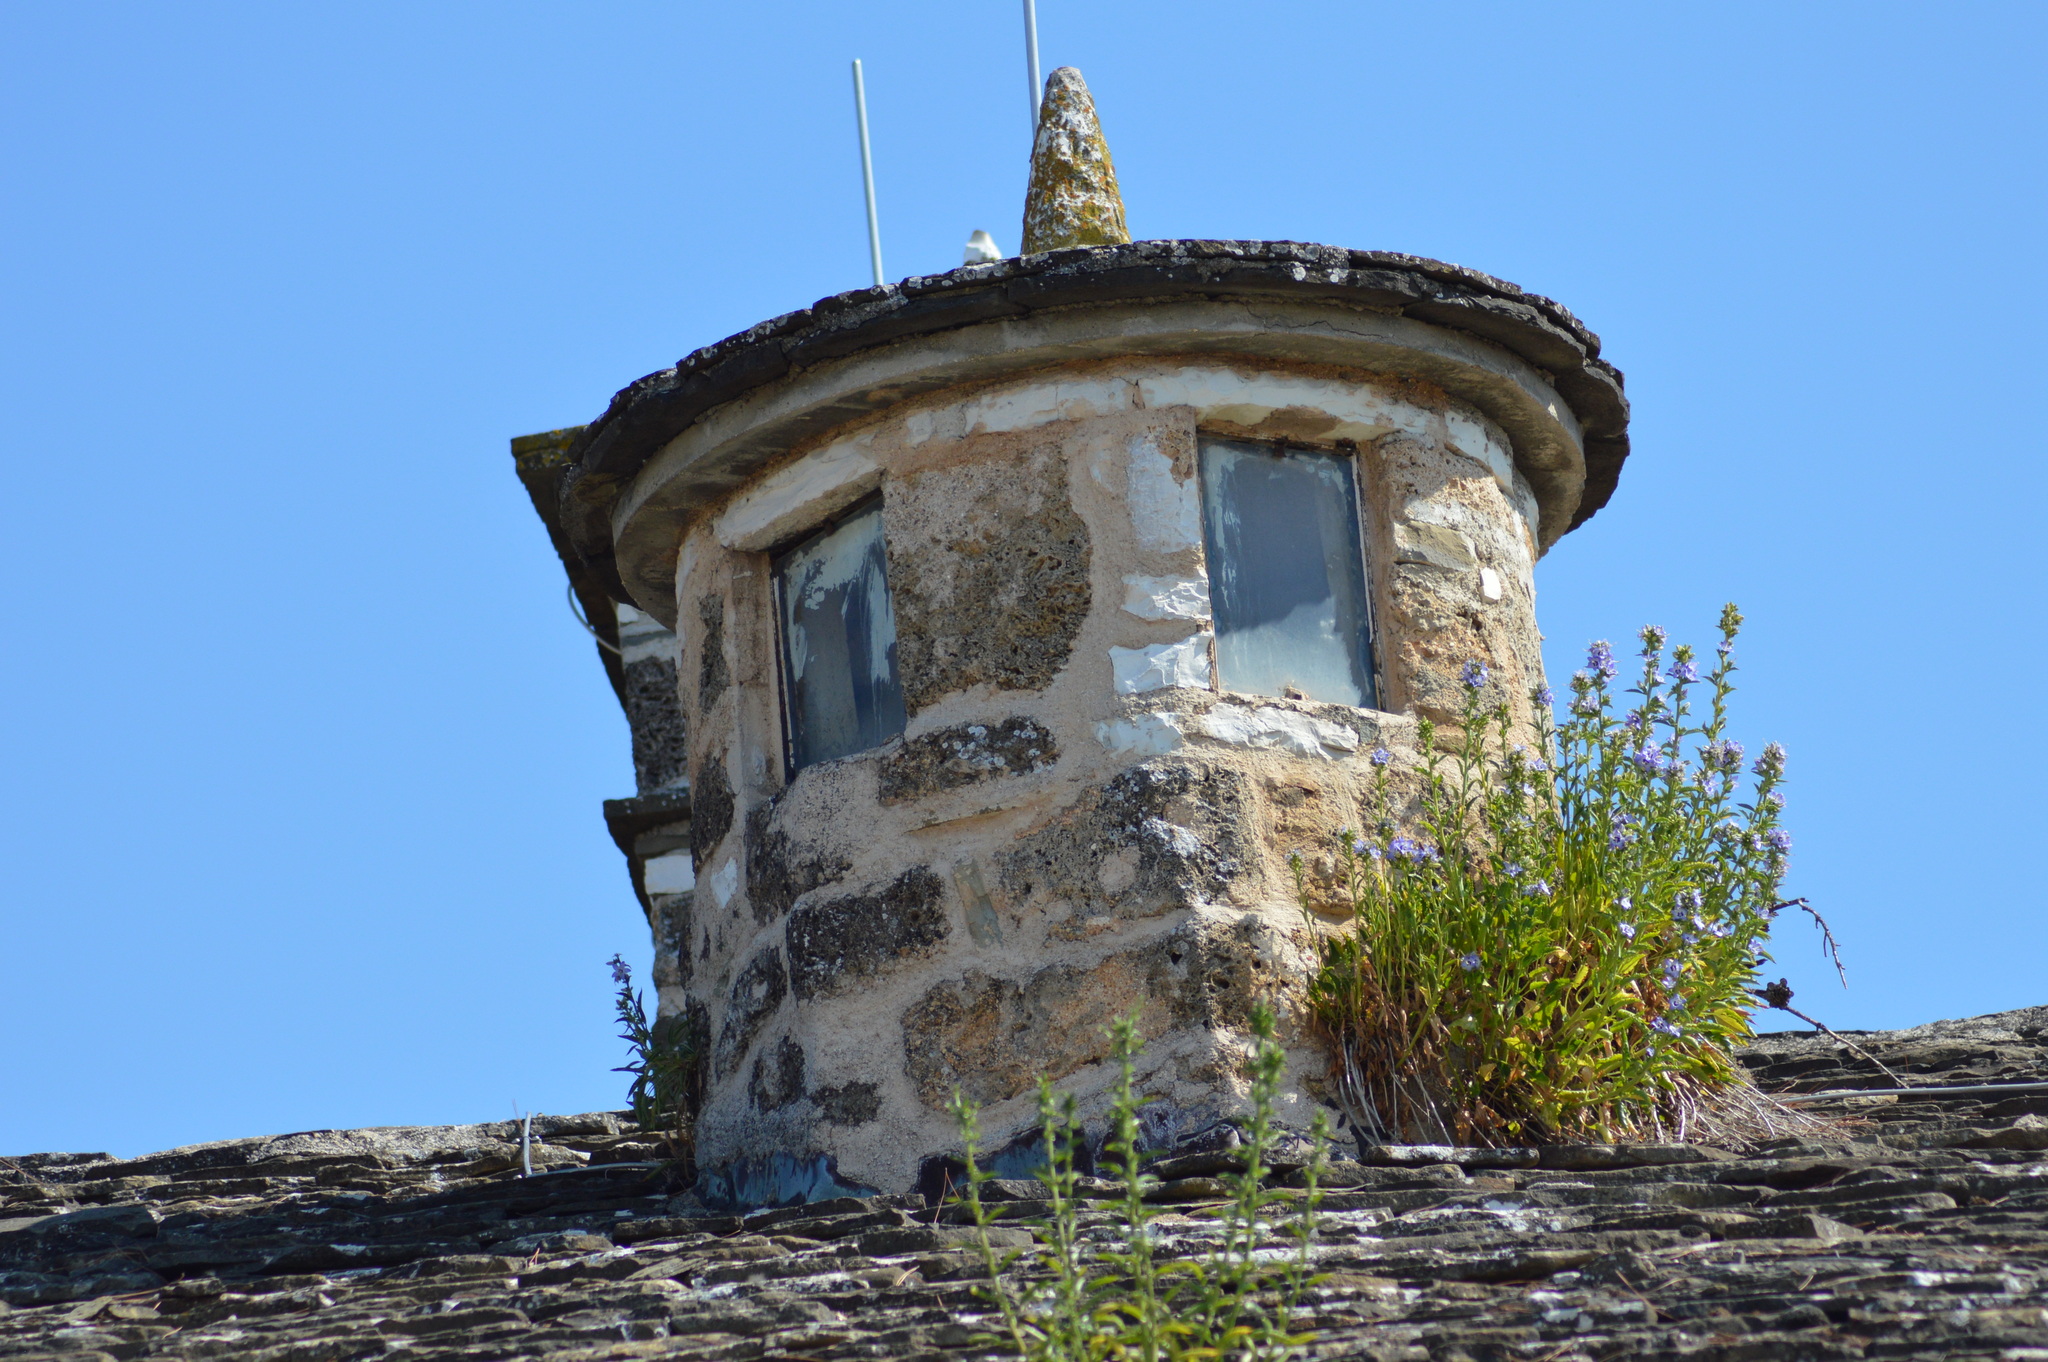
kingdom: Plantae
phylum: Tracheophyta
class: Magnoliopsida
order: Asterales
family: Campanulaceae
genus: Campanula
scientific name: Campanula versicolor
